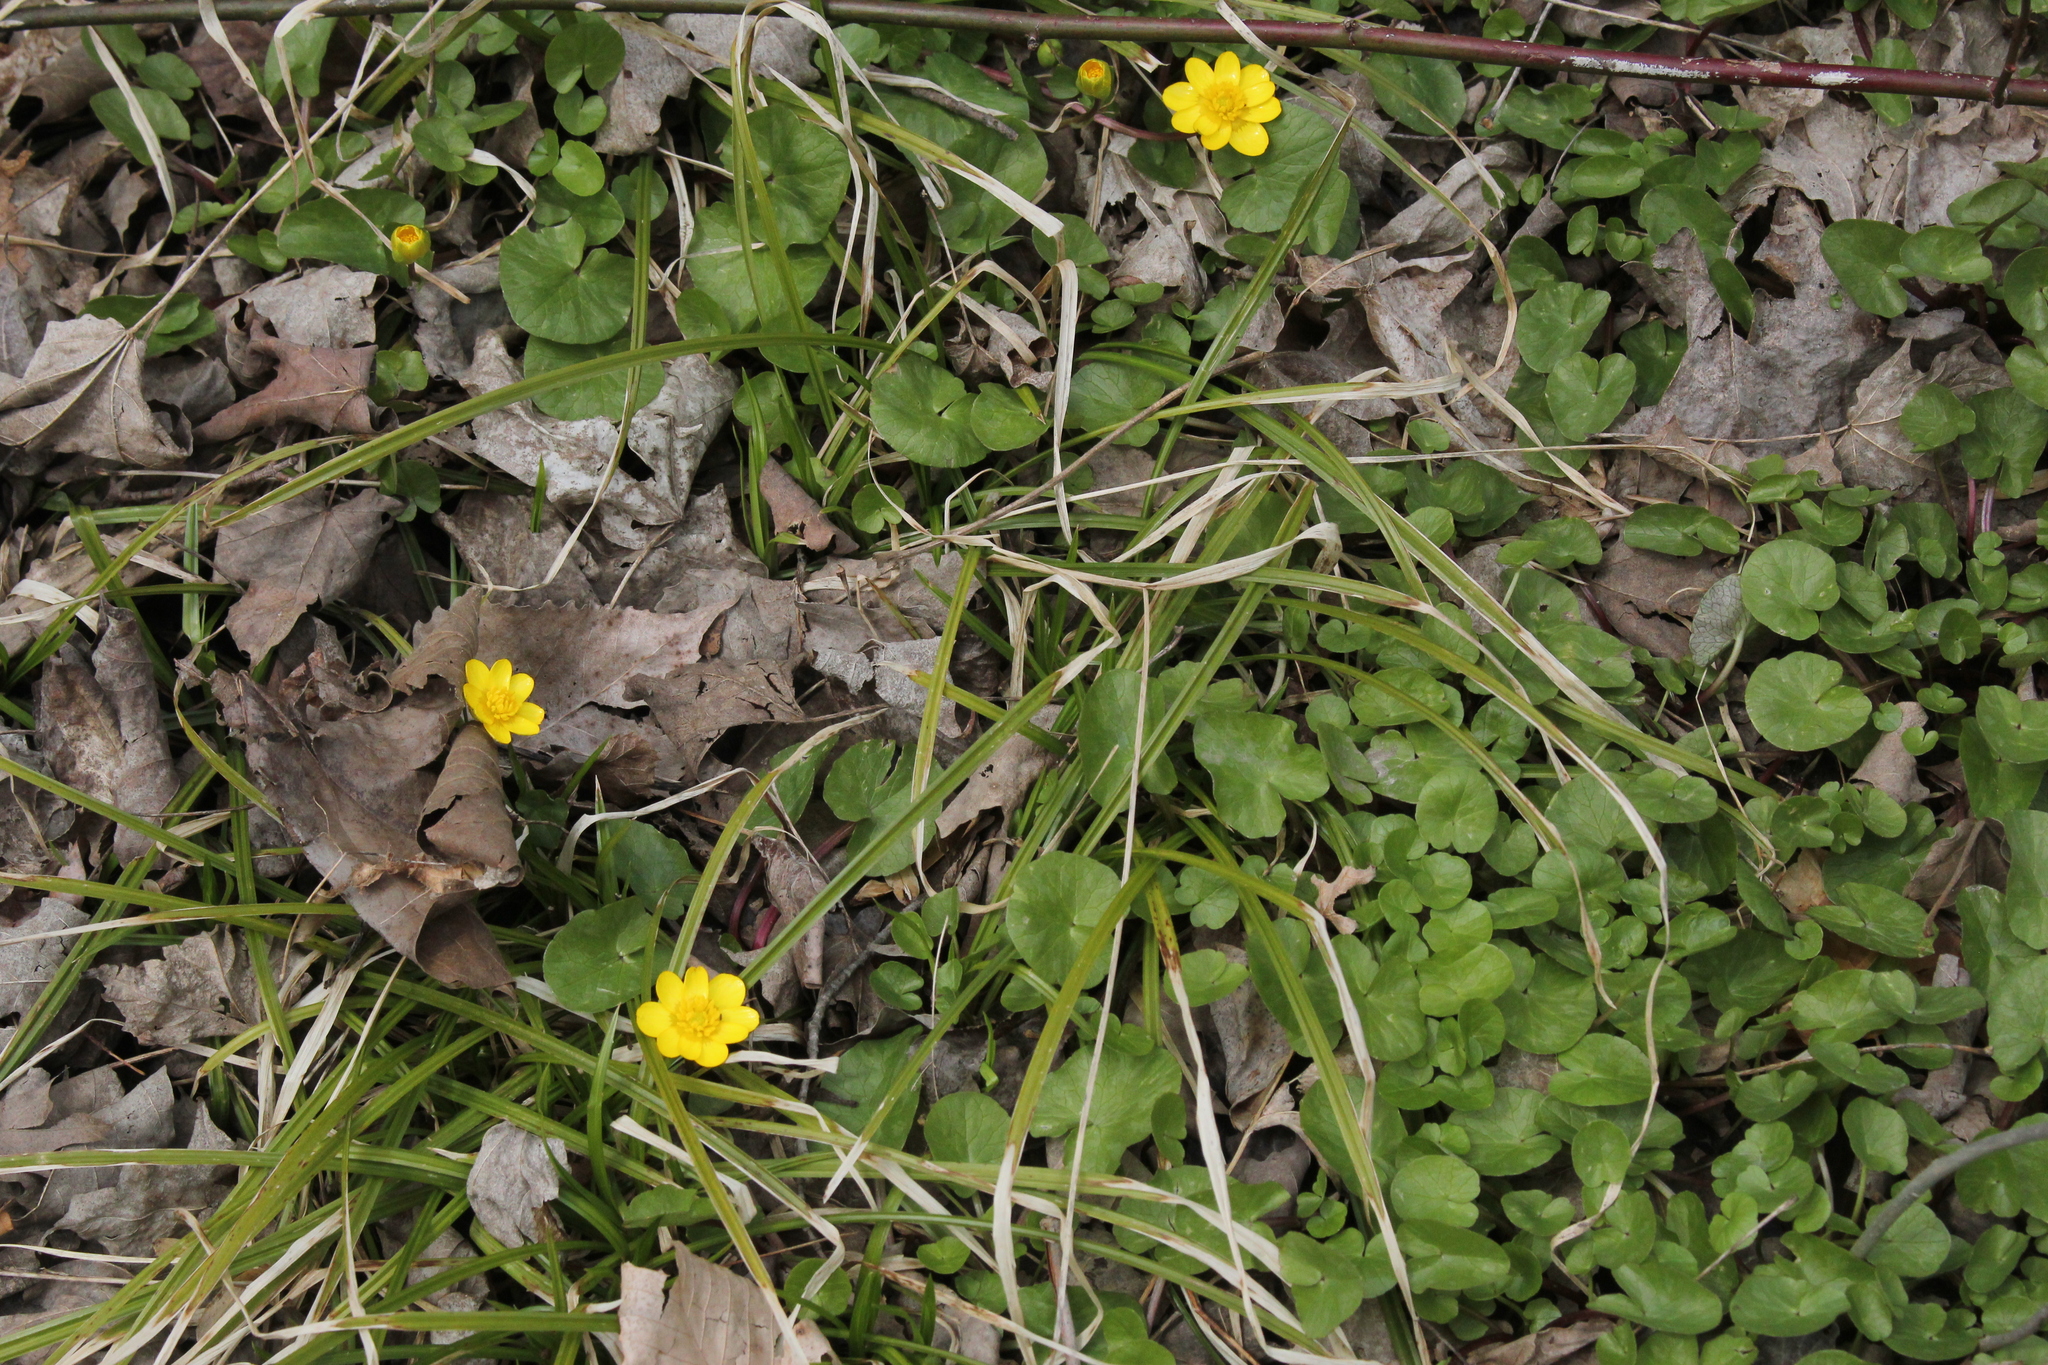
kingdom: Plantae
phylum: Tracheophyta
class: Magnoliopsida
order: Ranunculales
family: Ranunculaceae
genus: Ficaria
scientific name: Ficaria verna
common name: Lesser celandine
